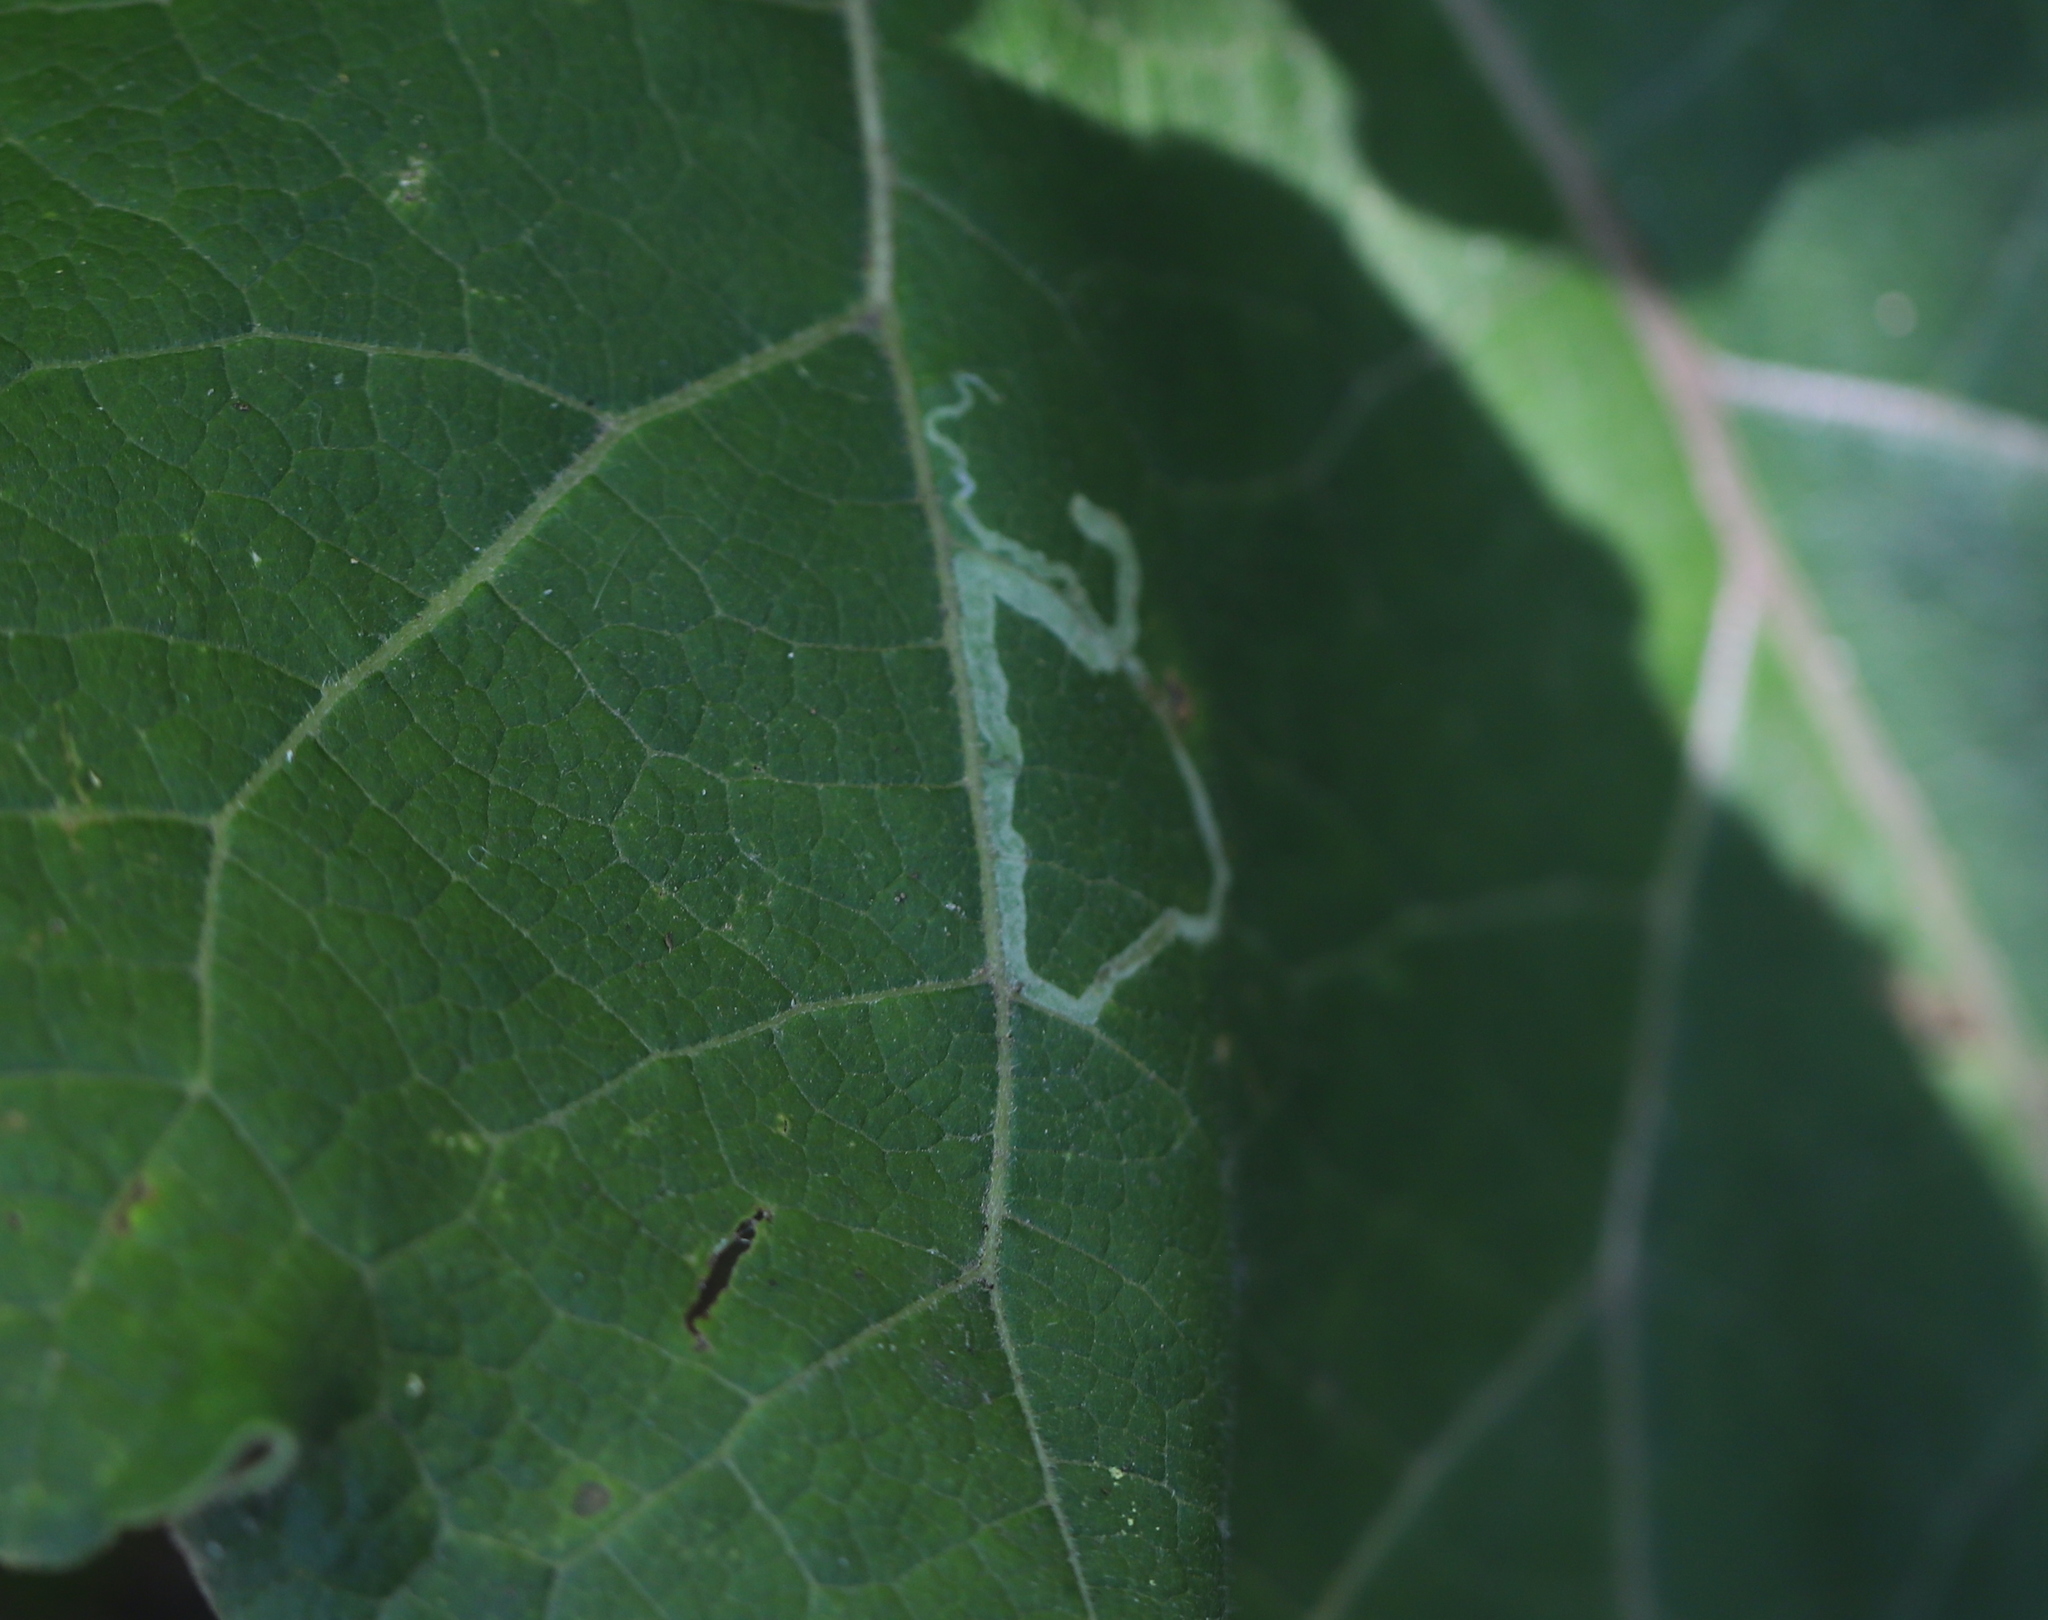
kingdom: Animalia
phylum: Arthropoda
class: Insecta
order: Diptera
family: Agromyzidae
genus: Liriomyza
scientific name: Liriomyza arctii
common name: Burdock leafminer
